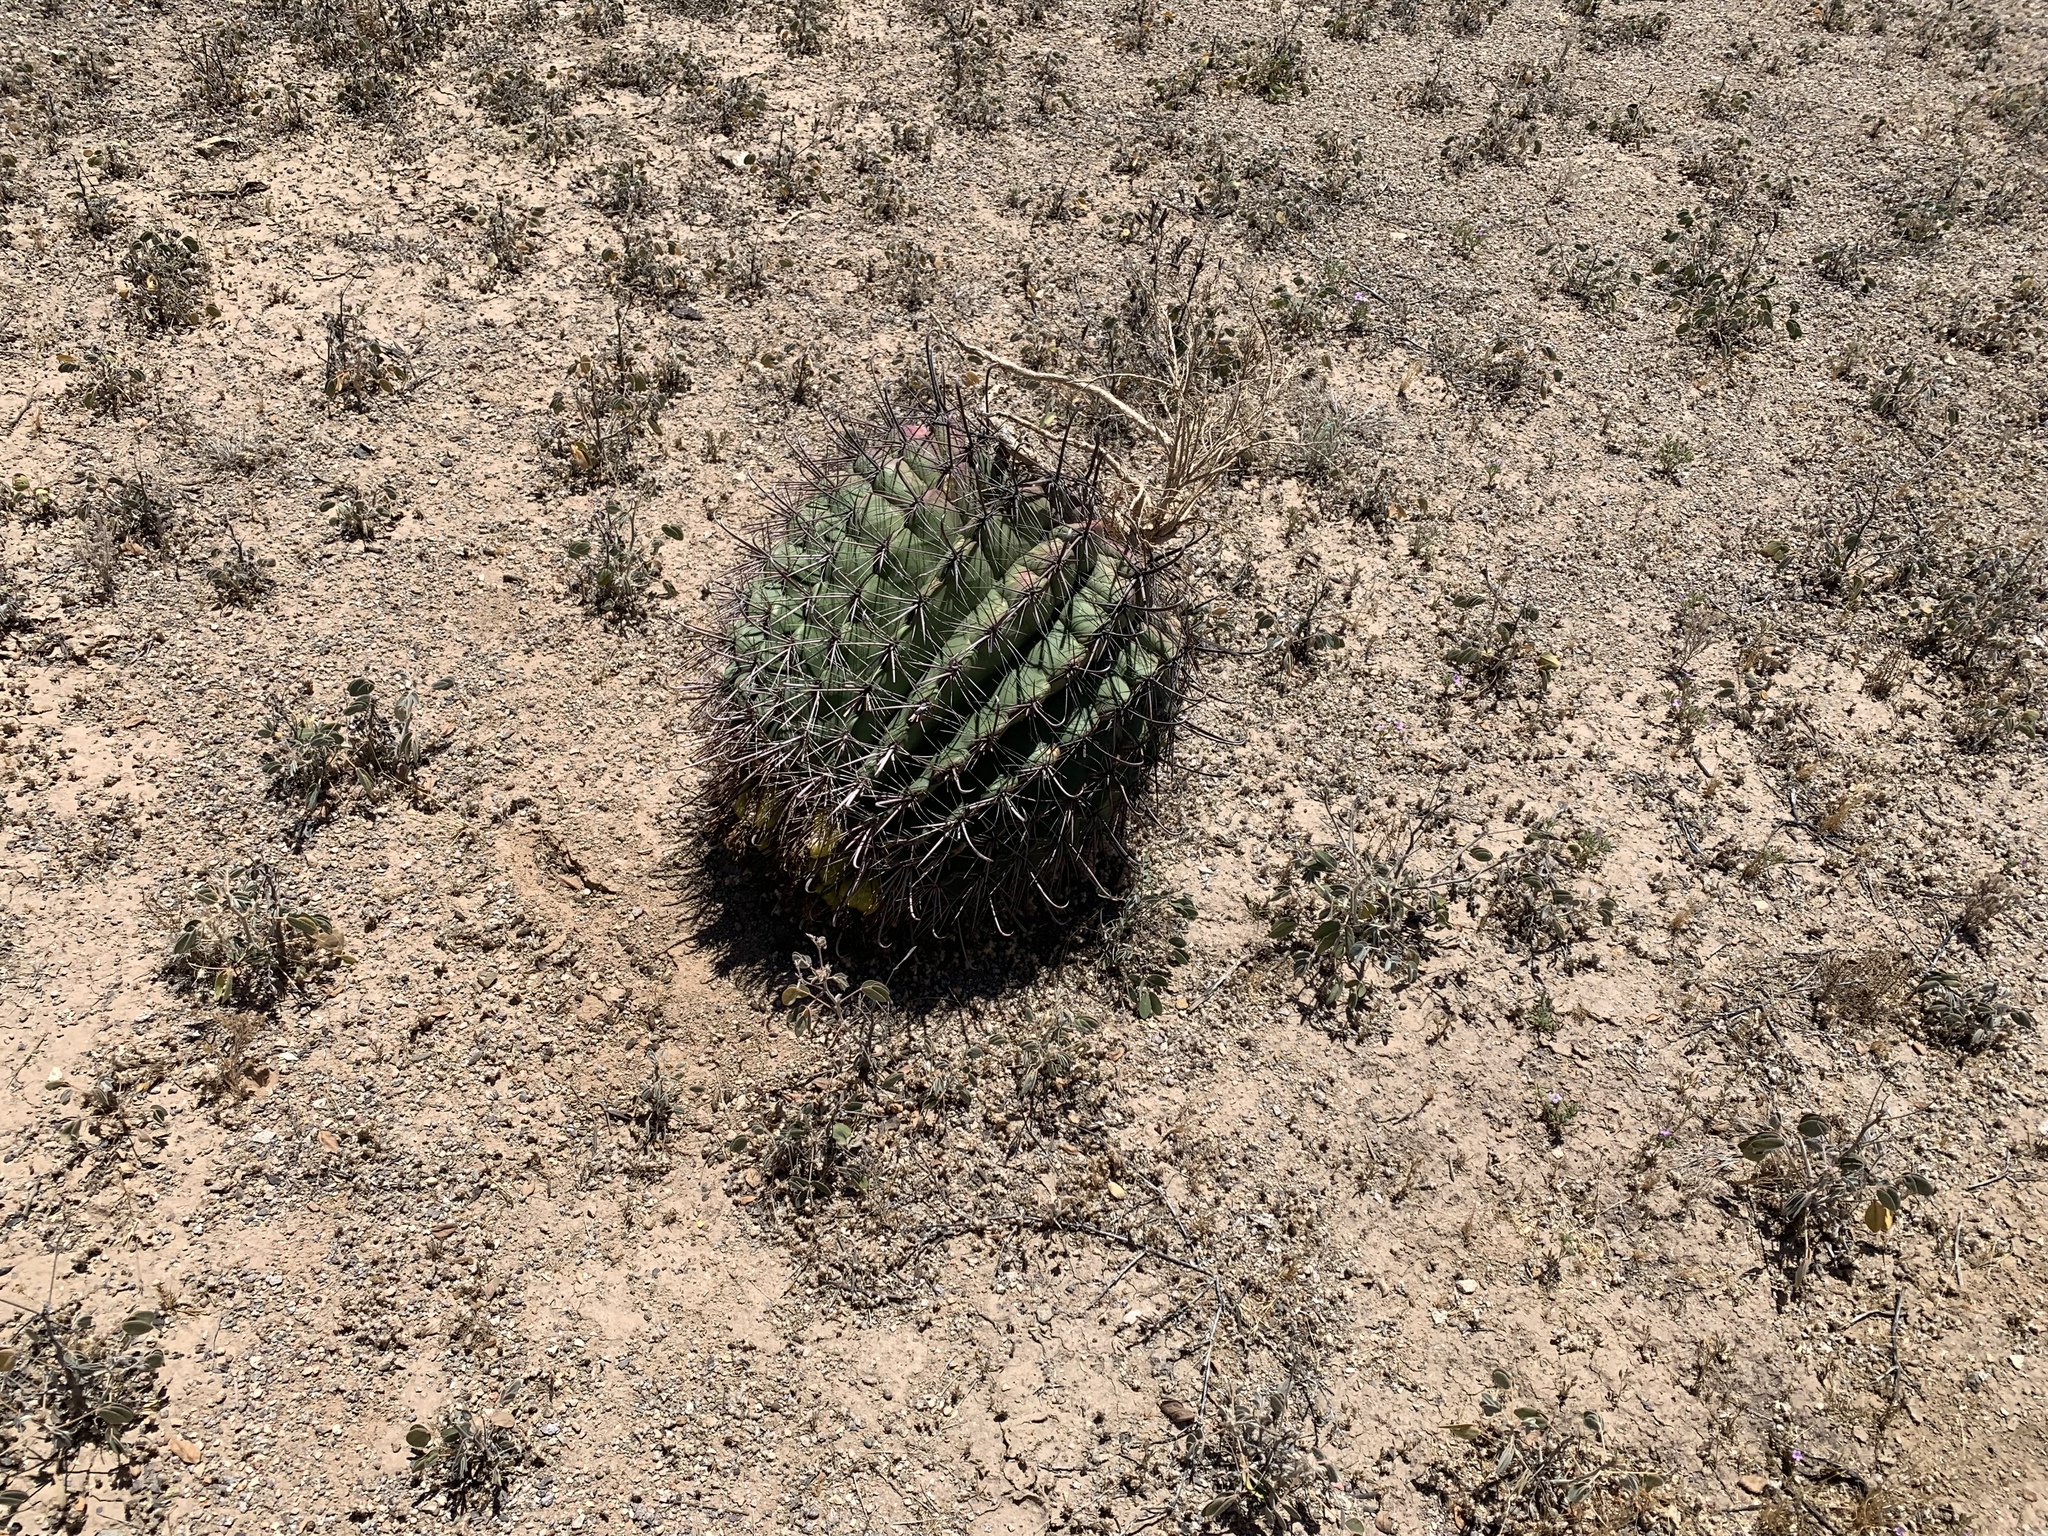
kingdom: Plantae
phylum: Tracheophyta
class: Magnoliopsida
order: Caryophyllales
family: Cactaceae
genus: Ferocactus
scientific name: Ferocactus wislizeni
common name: Candy barrel cactus
